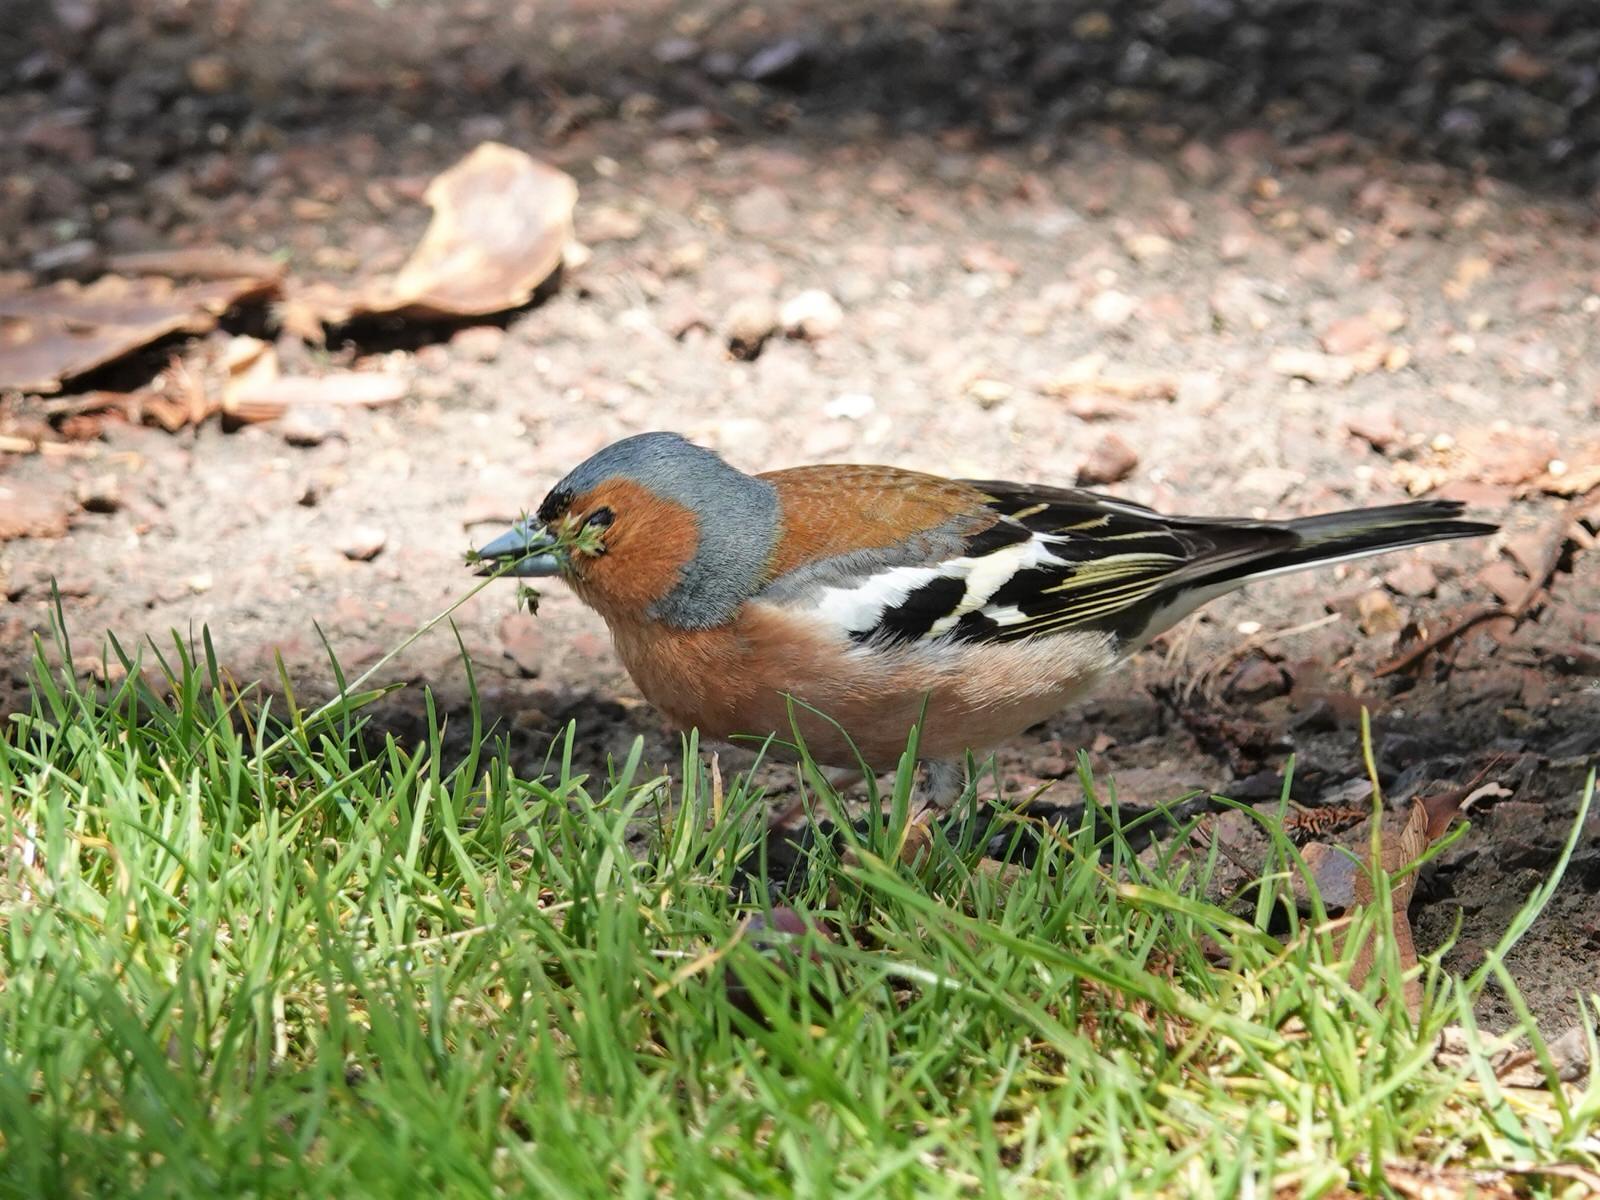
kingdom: Animalia
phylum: Chordata
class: Aves
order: Passeriformes
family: Fringillidae
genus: Fringilla
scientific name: Fringilla coelebs
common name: Common chaffinch
